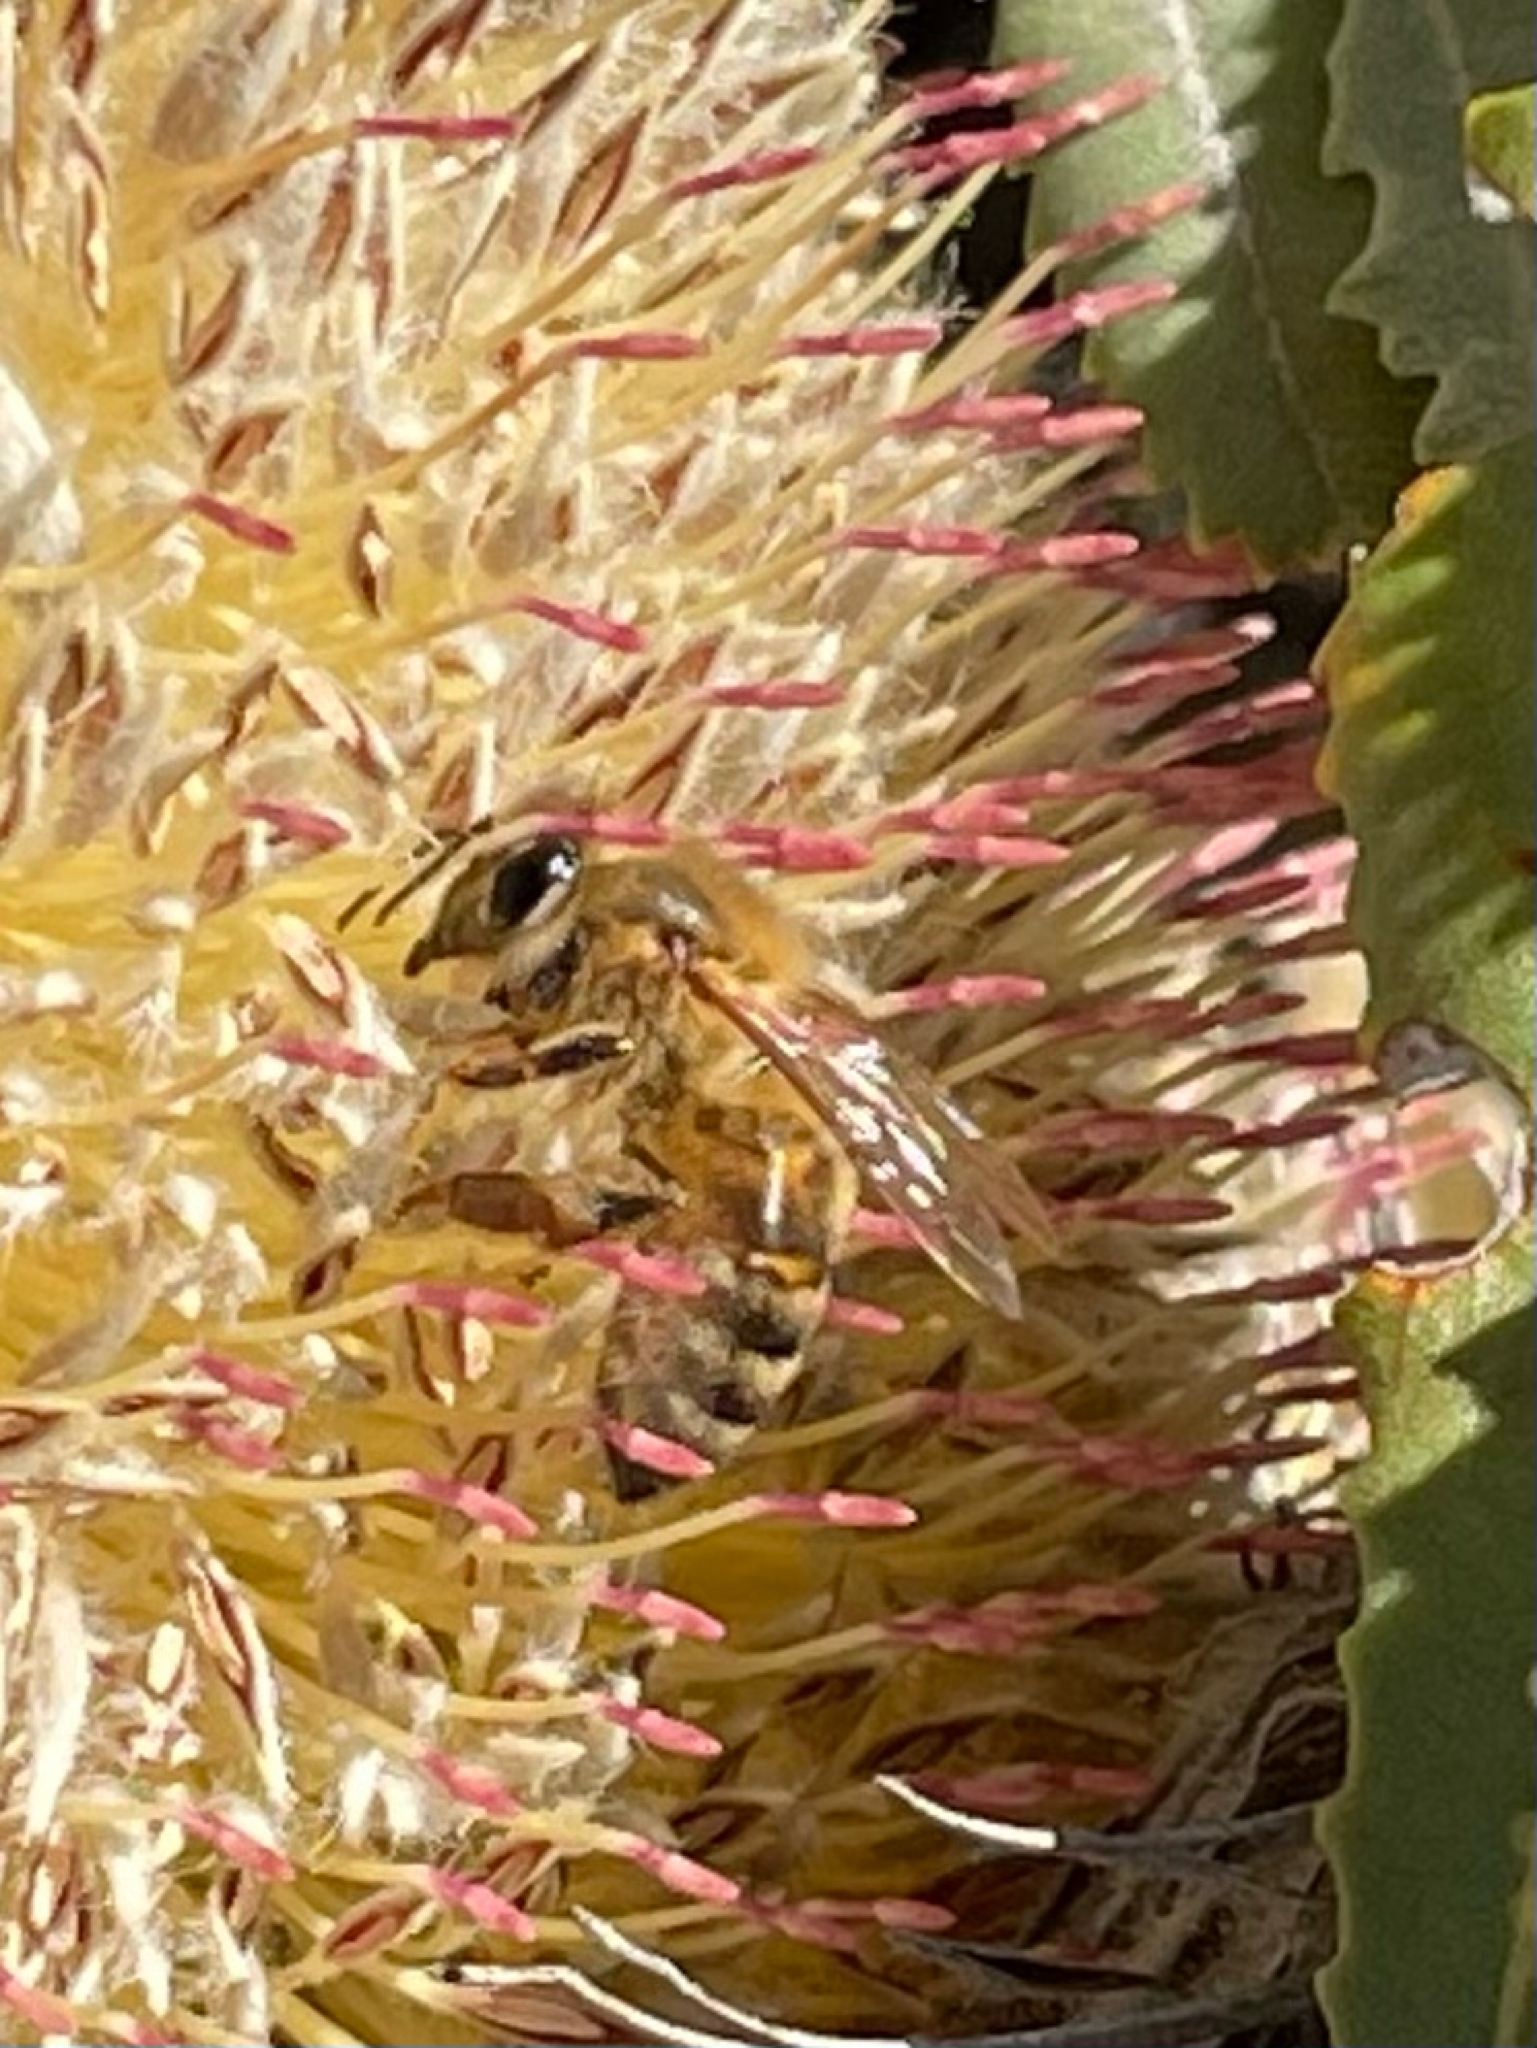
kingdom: Animalia
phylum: Arthropoda
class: Insecta
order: Hymenoptera
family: Apidae
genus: Apis
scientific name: Apis mellifera
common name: Honey bee
